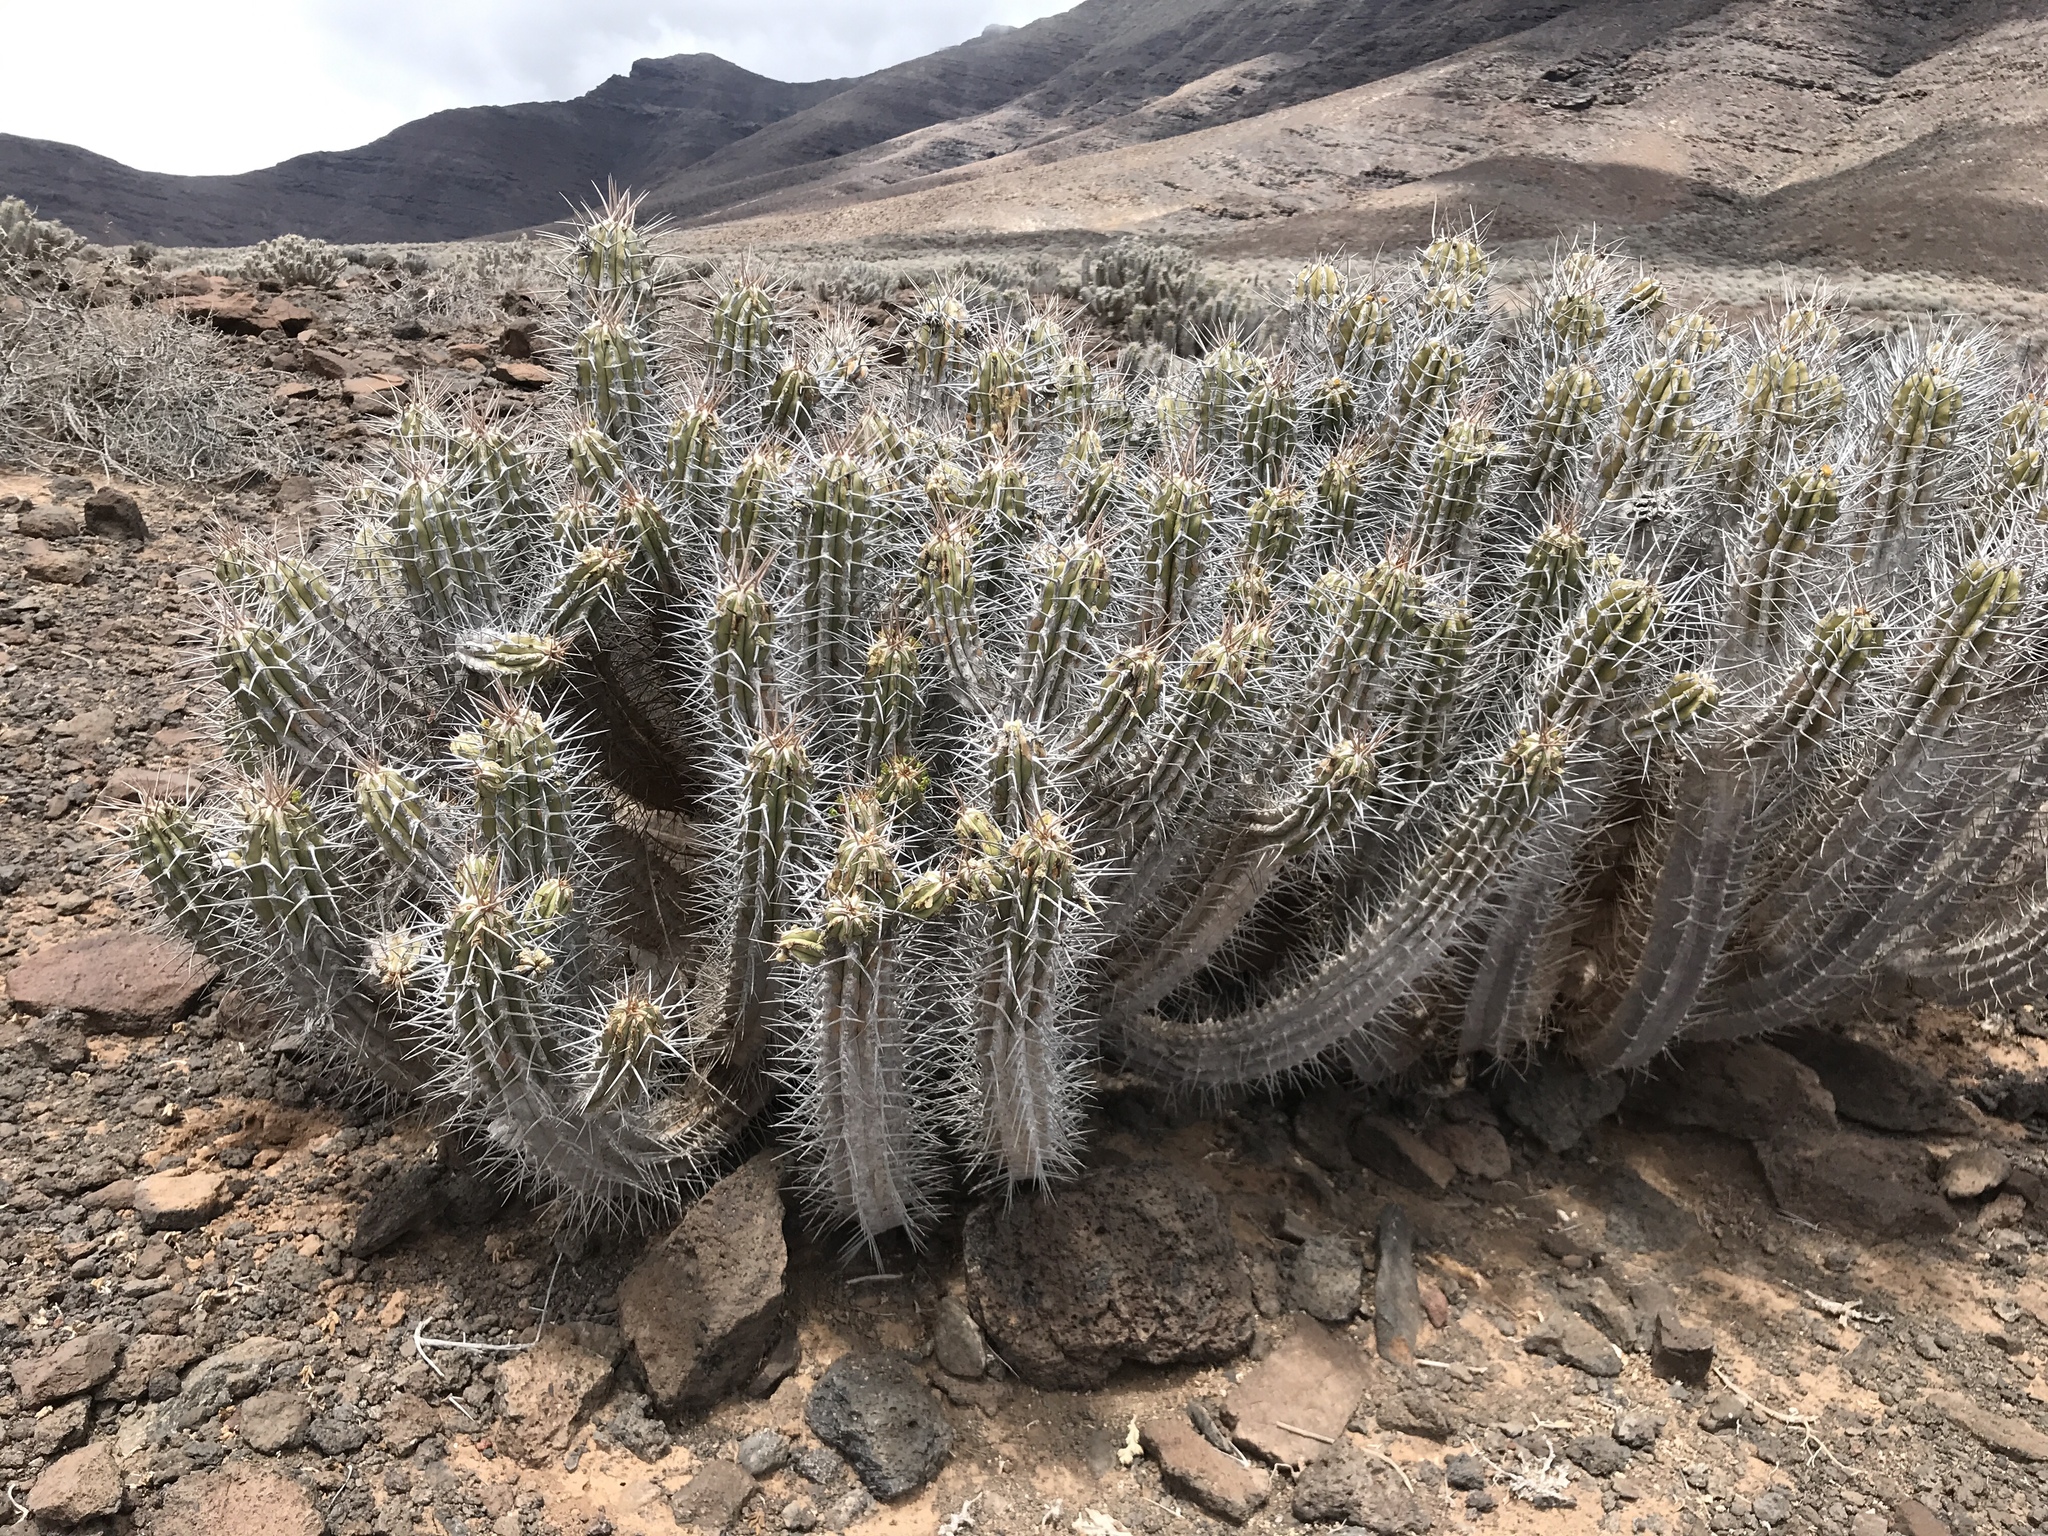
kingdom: Plantae
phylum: Tracheophyta
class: Magnoliopsida
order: Malpighiales
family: Euphorbiaceae
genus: Euphorbia
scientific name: Euphorbia handiensis
